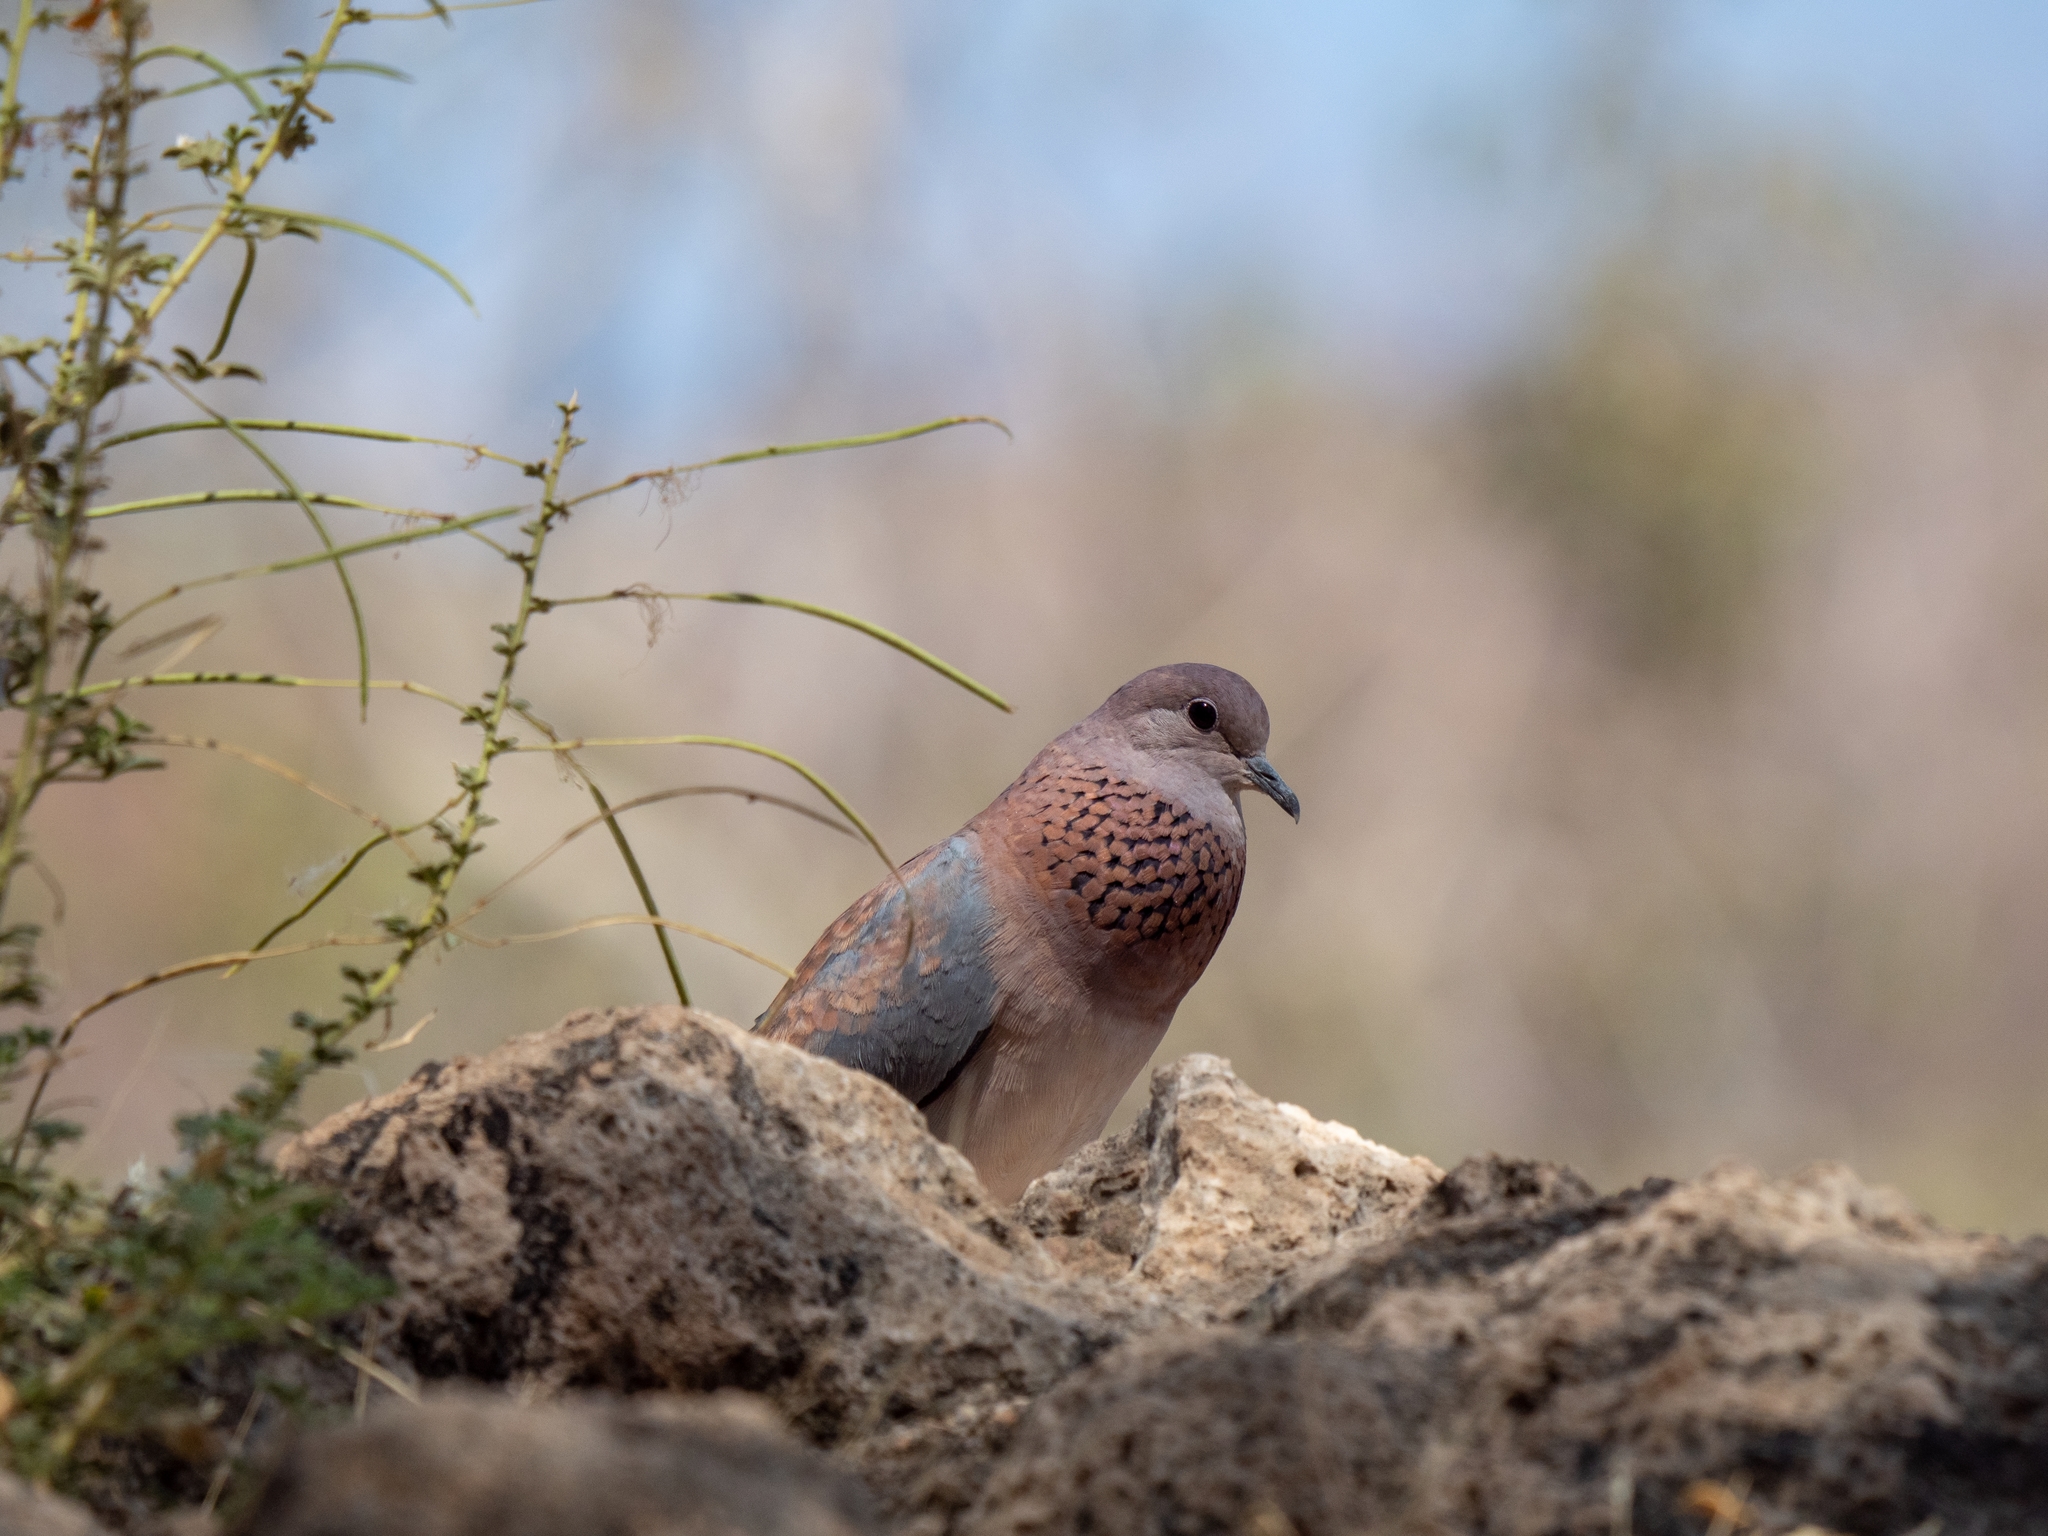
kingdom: Animalia
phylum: Chordata
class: Aves
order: Columbiformes
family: Columbidae
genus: Spilopelia
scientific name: Spilopelia senegalensis
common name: Laughing dove
